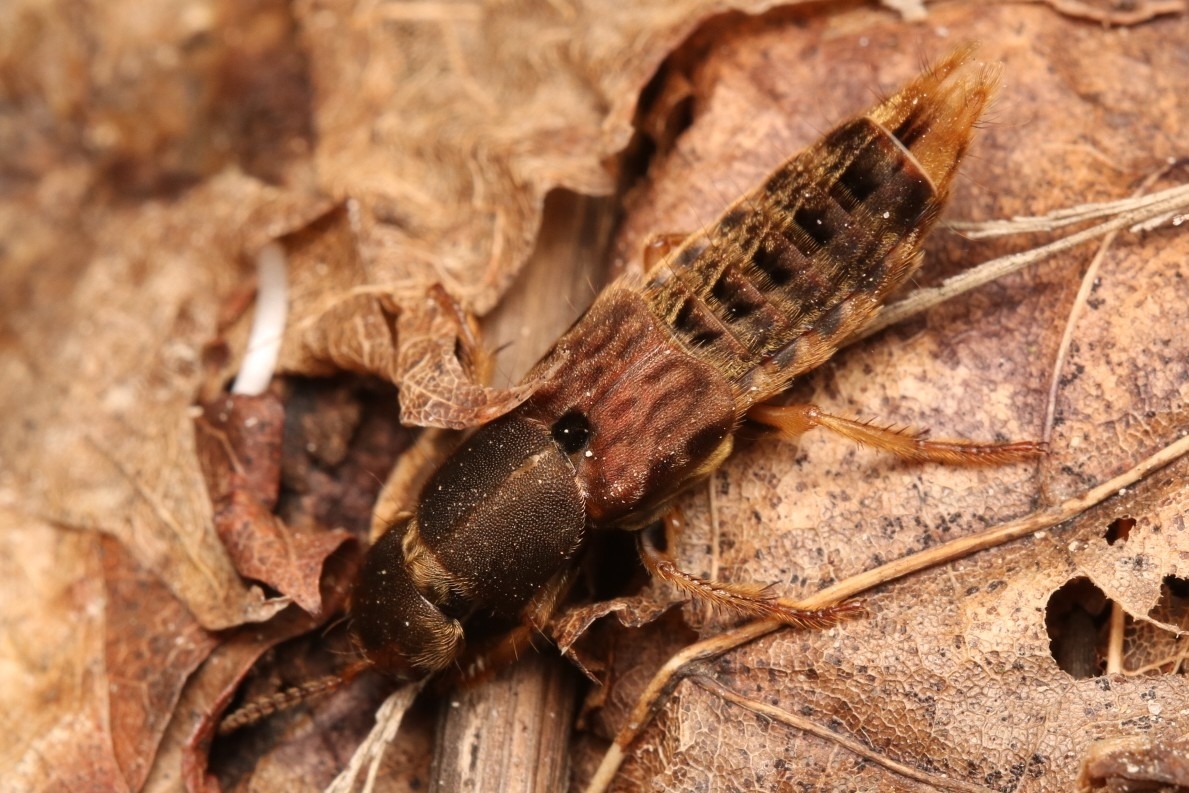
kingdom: Animalia
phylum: Arthropoda
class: Insecta
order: Coleoptera
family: Staphylinidae
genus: Platydracus
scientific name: Platydracus maculosus
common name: Brown rove beetle
